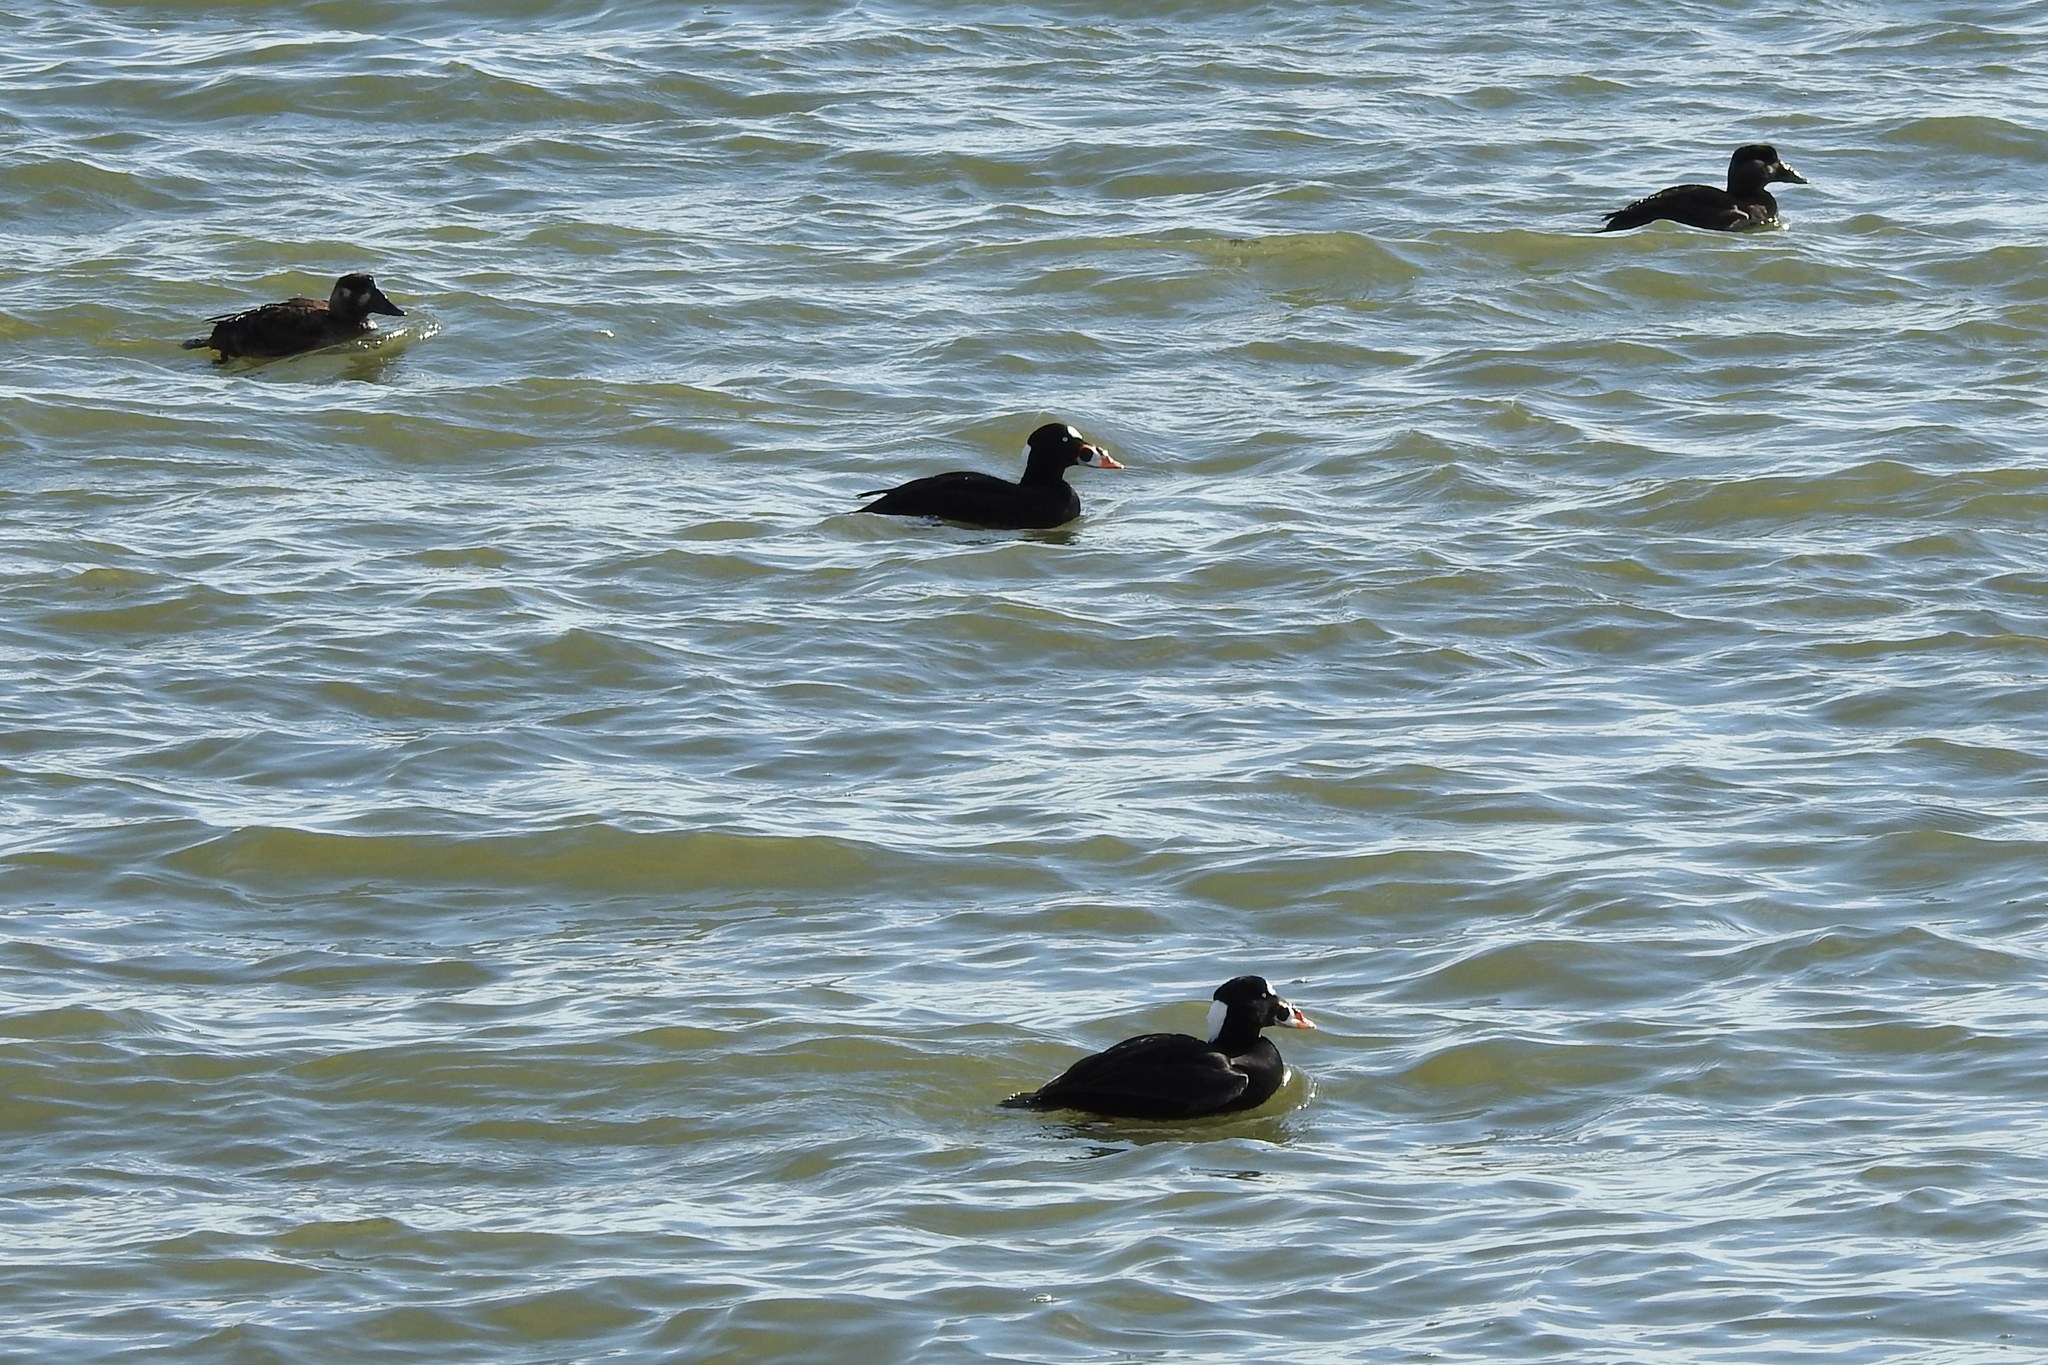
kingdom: Animalia
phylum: Chordata
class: Aves
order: Anseriformes
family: Anatidae
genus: Melanitta
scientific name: Melanitta perspicillata
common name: Surf scoter
